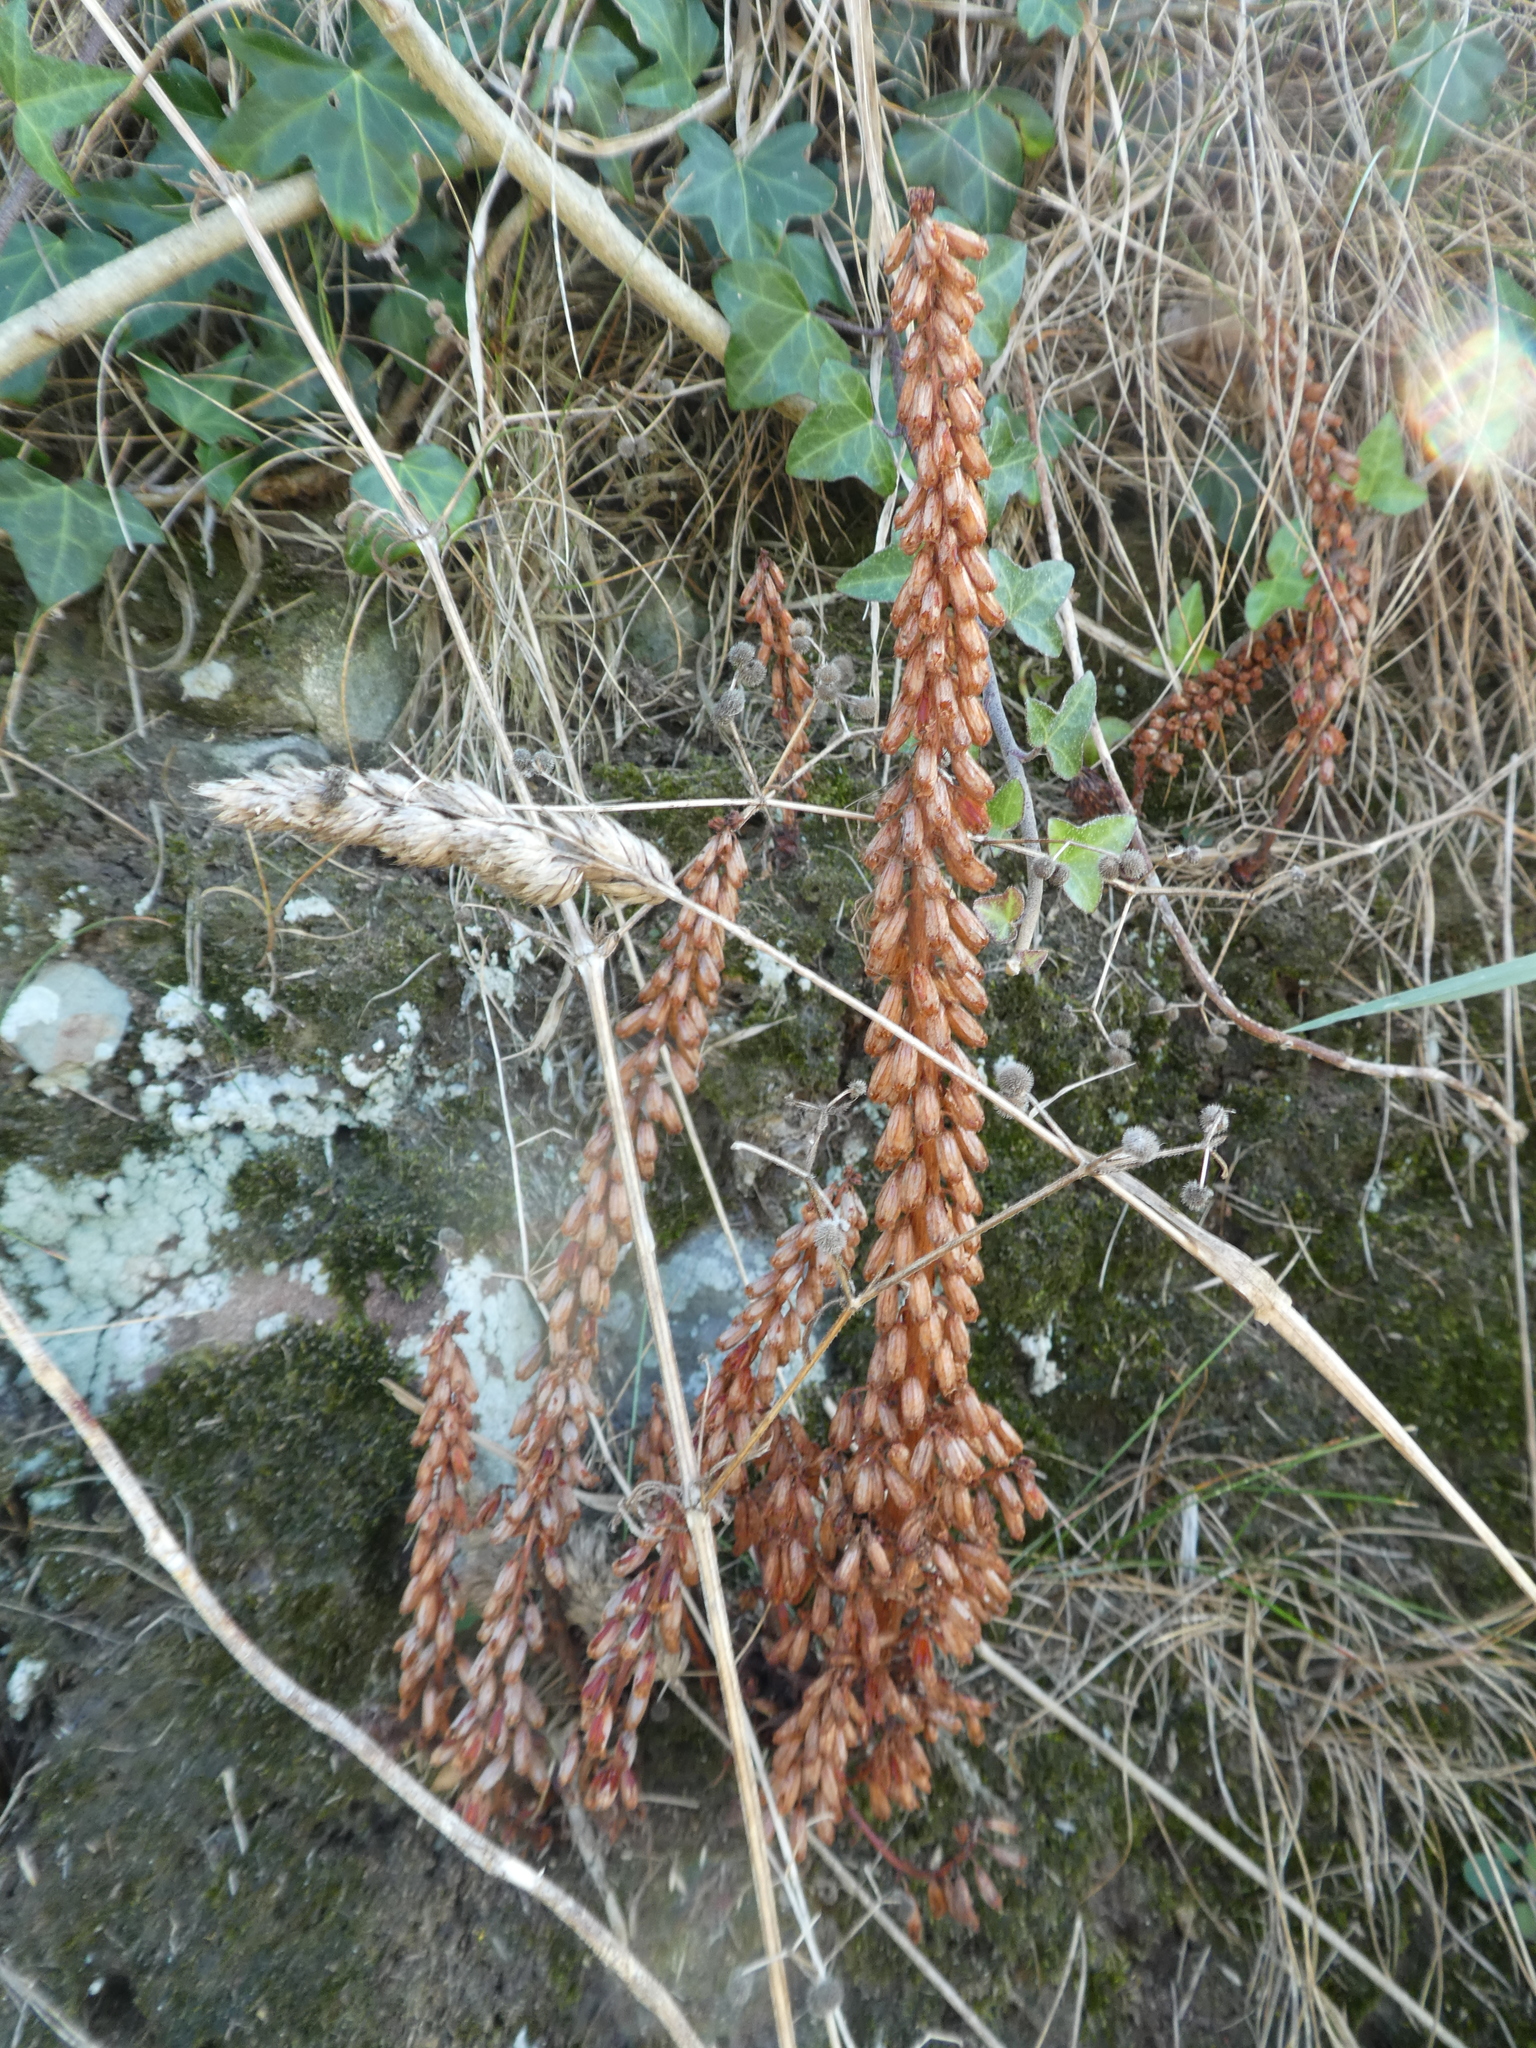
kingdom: Plantae
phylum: Tracheophyta
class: Magnoliopsida
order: Saxifragales
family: Crassulaceae
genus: Umbilicus
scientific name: Umbilicus rupestris
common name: Navelwort
